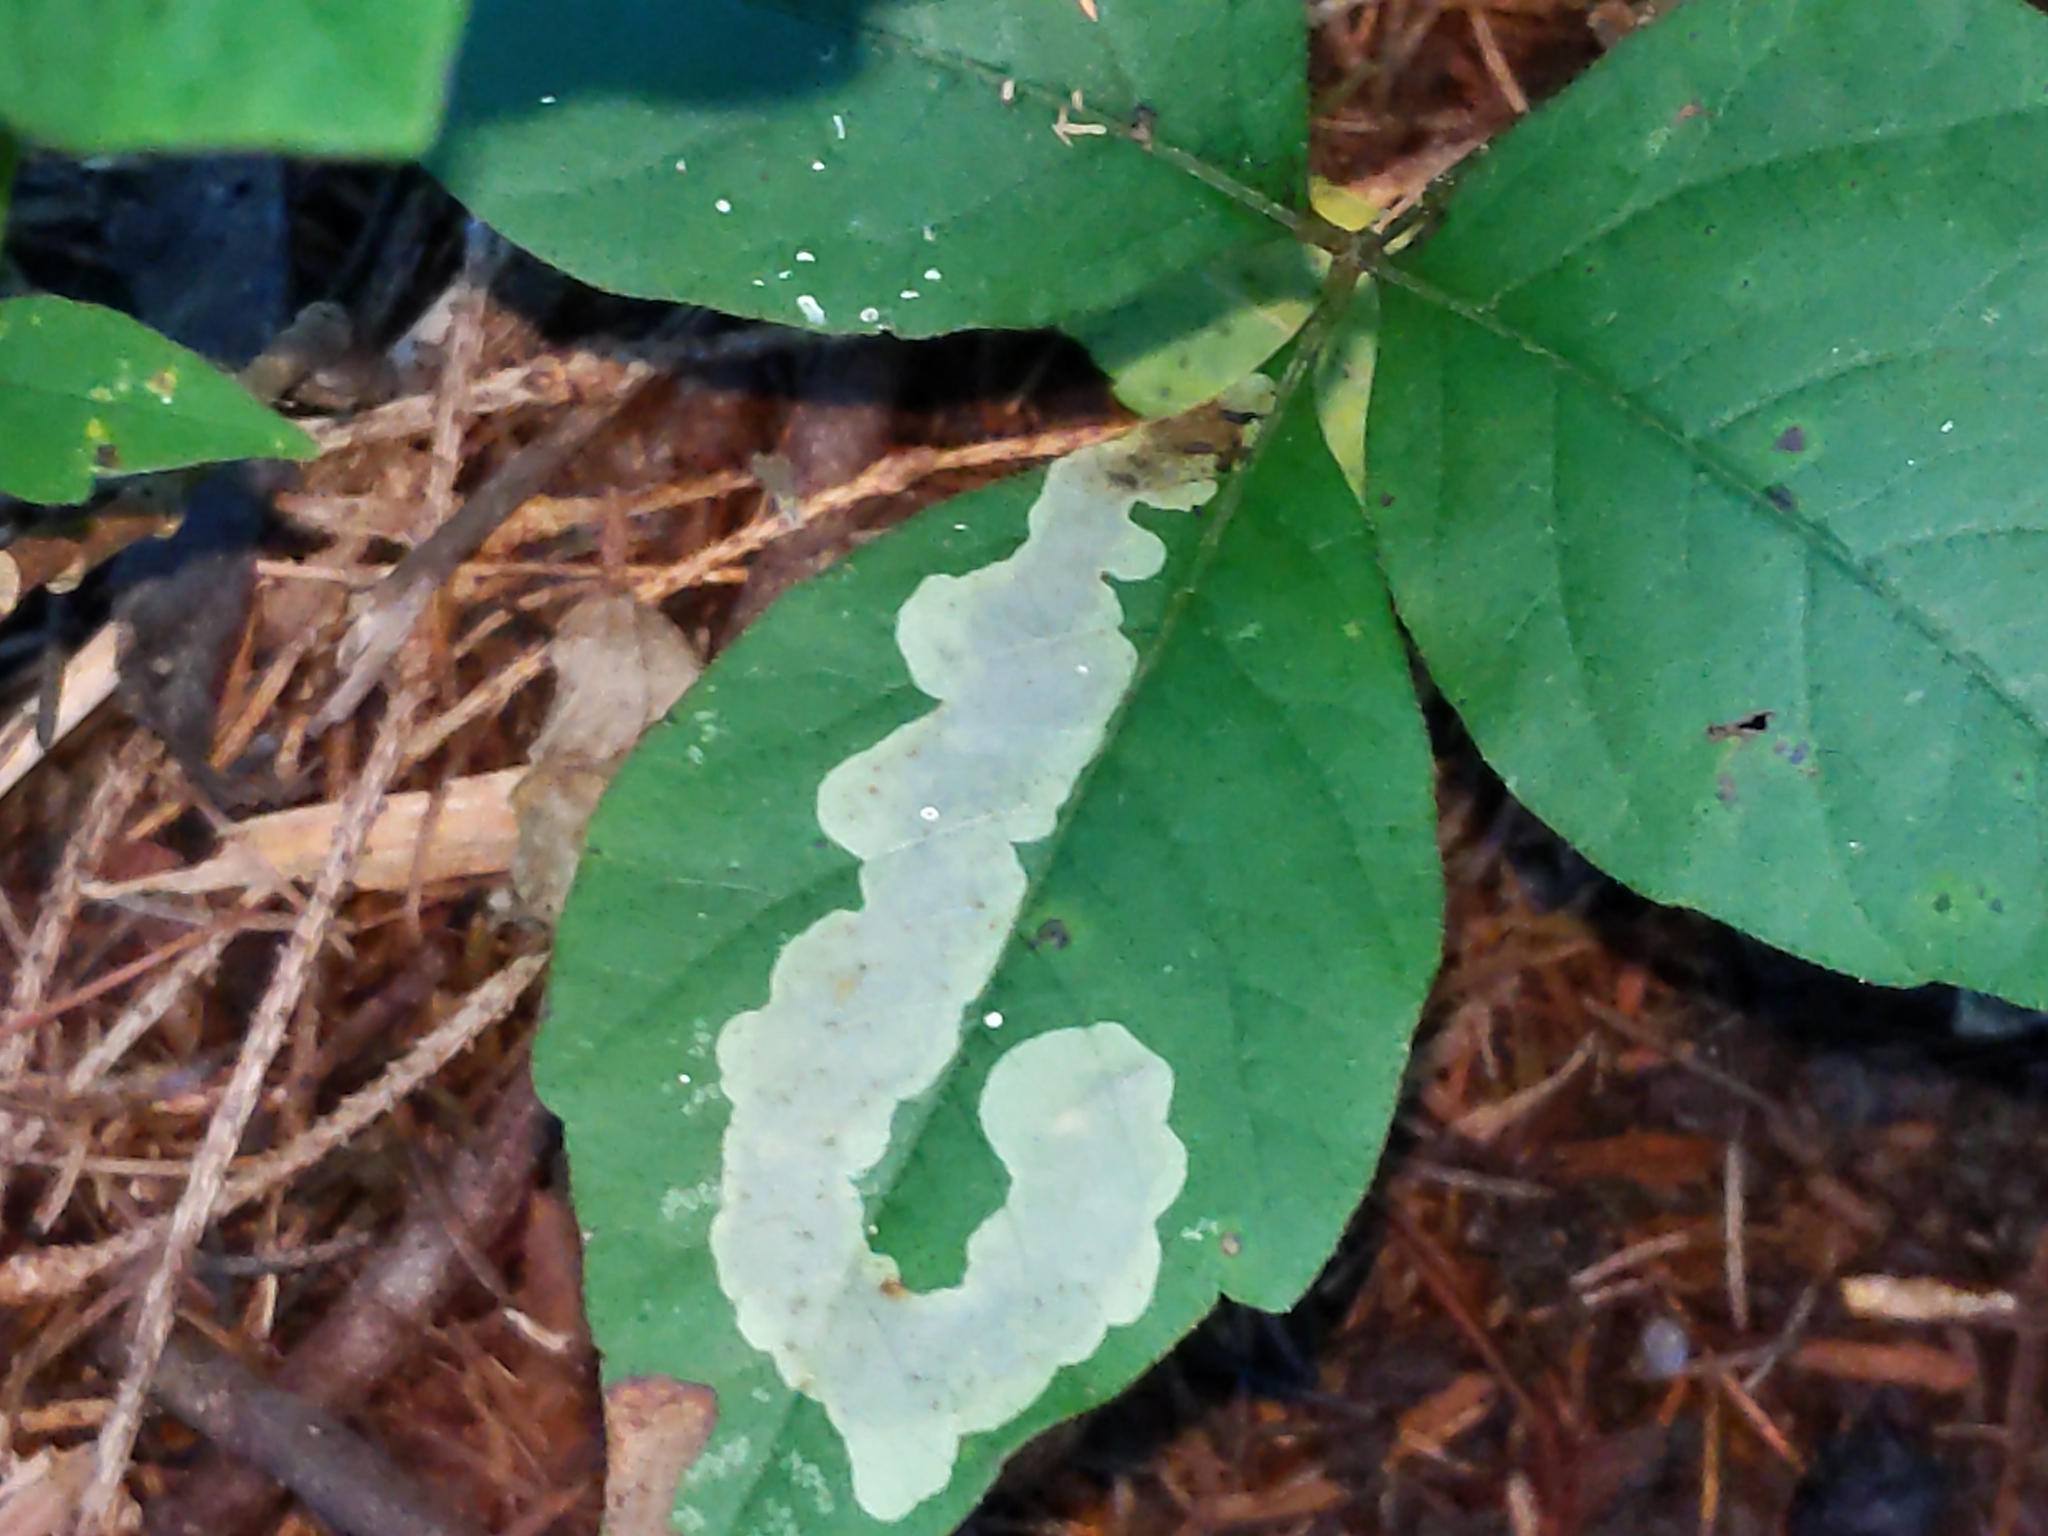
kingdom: Animalia
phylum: Arthropoda
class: Insecta
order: Lepidoptera
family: Gracillariidae
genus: Cameraria
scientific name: Cameraria guttifinitella
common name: Poison ivy leaf-miner moth
